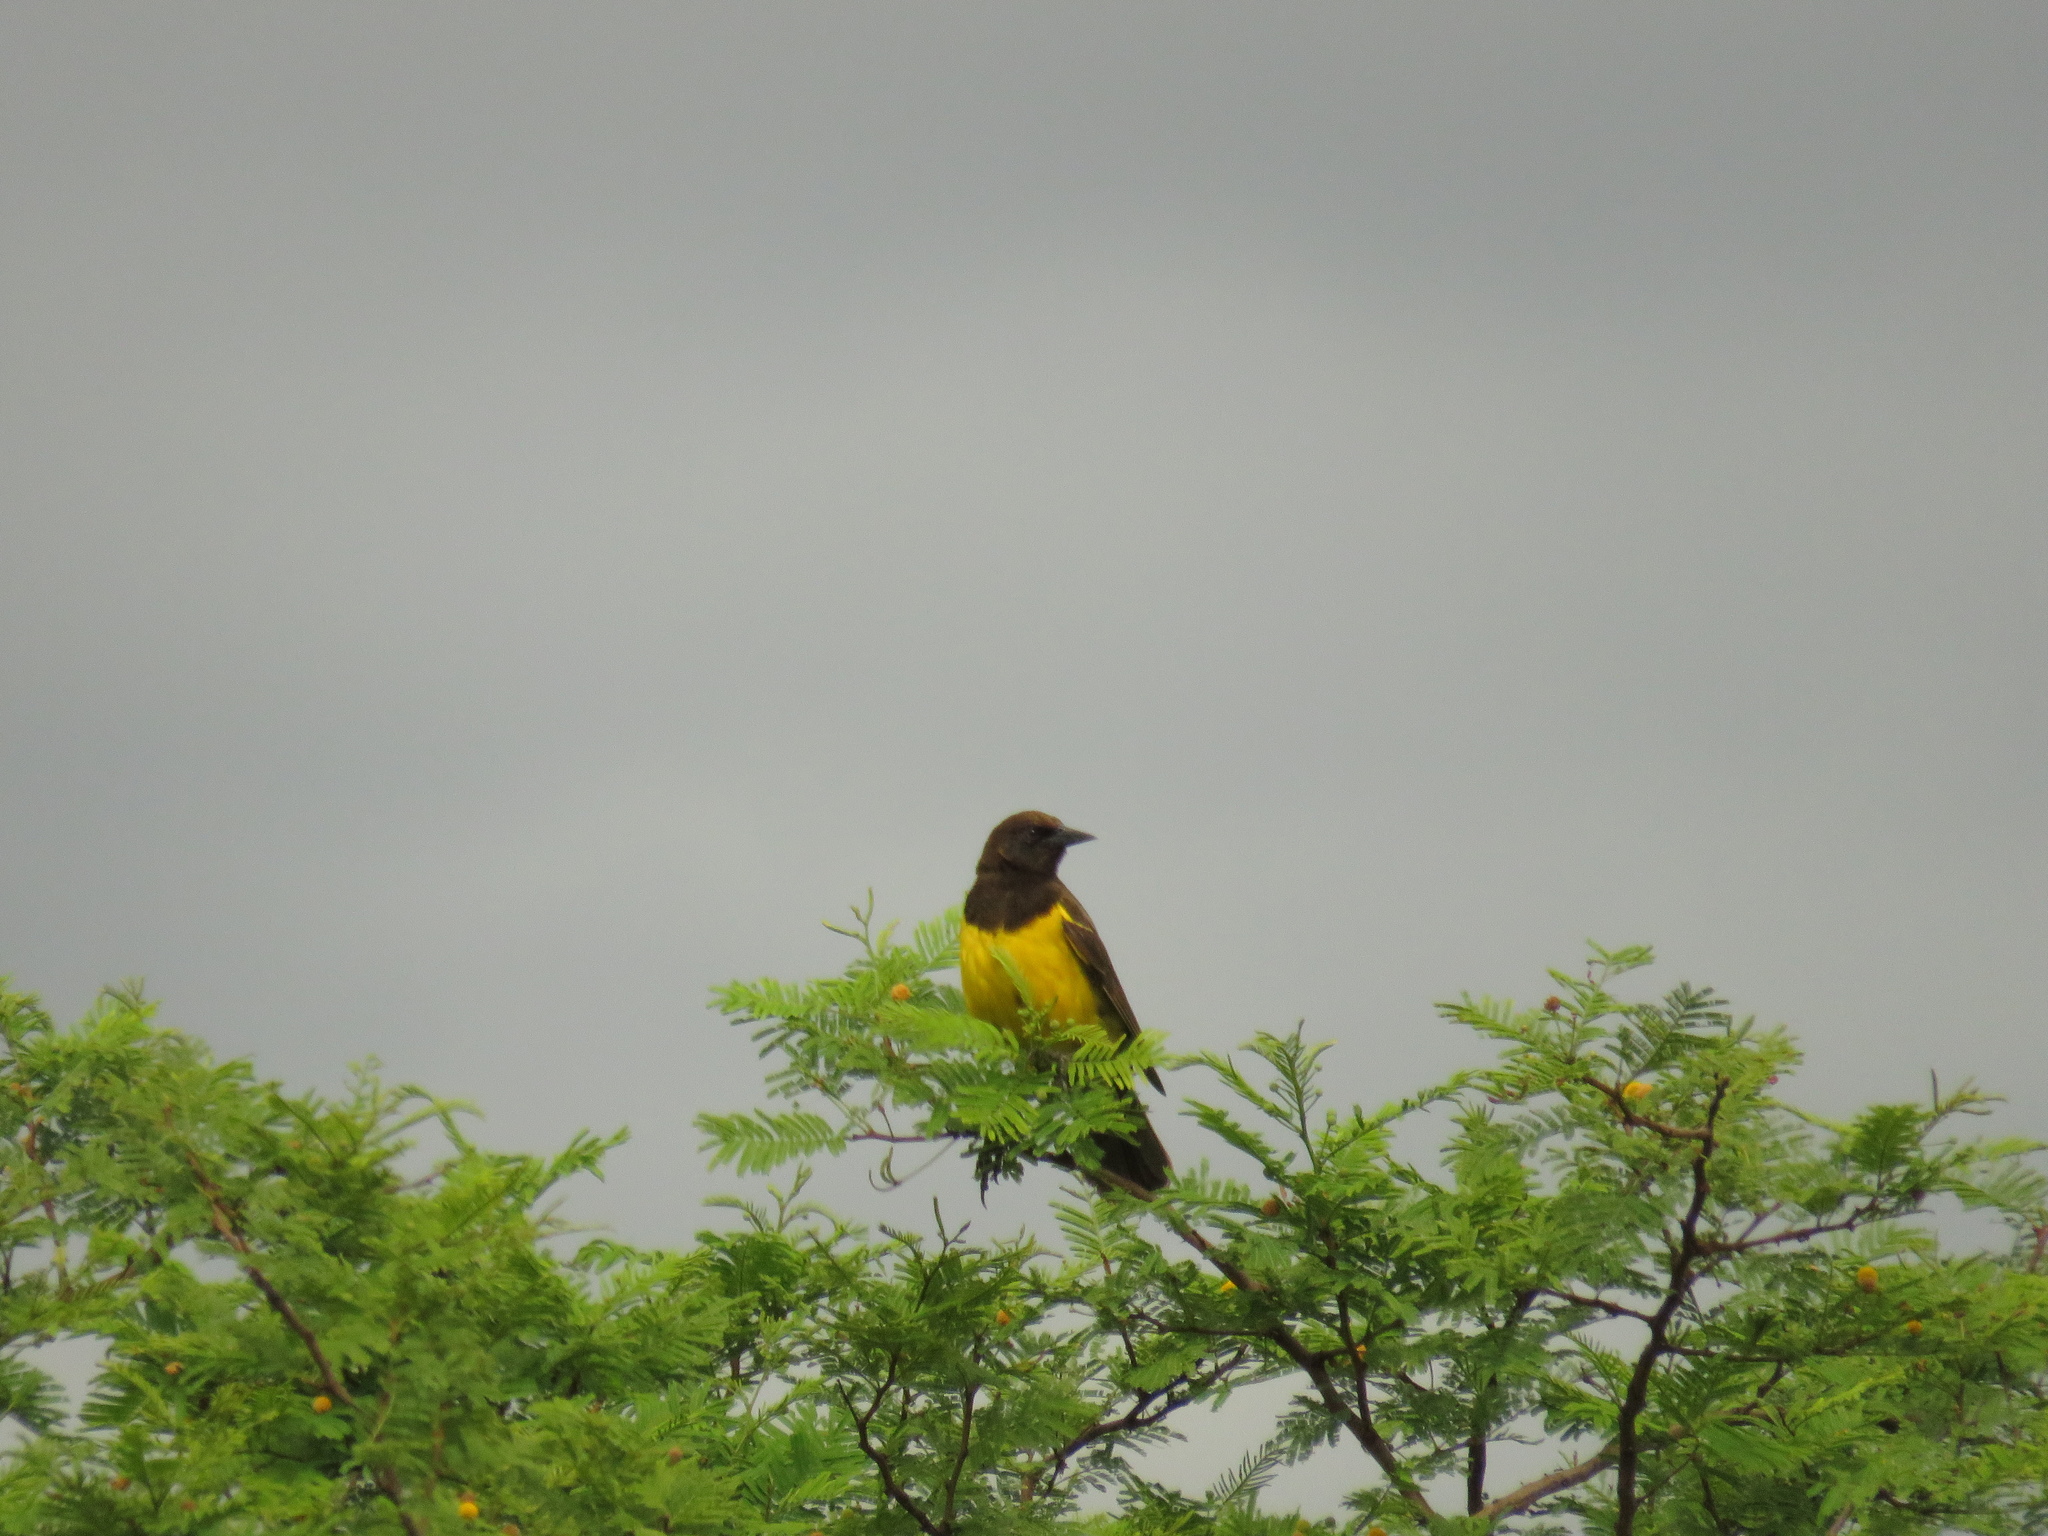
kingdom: Animalia
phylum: Chordata
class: Aves
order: Passeriformes
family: Icteridae
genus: Pseudoleistes
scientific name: Pseudoleistes guirahuro
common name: Yellow-rumped marshbird
